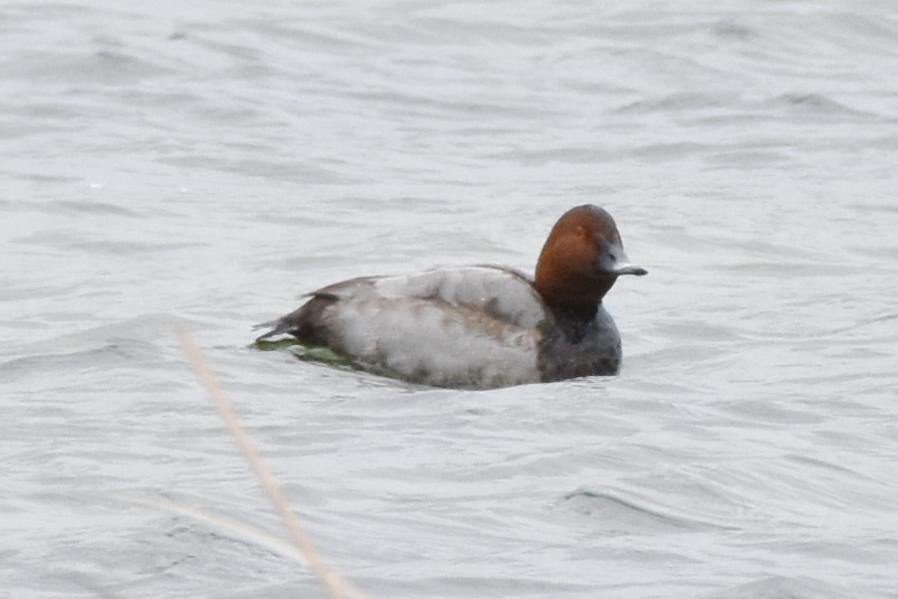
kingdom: Animalia
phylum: Chordata
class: Aves
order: Anseriformes
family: Anatidae
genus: Aythya
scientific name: Aythya ferina
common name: Common pochard
